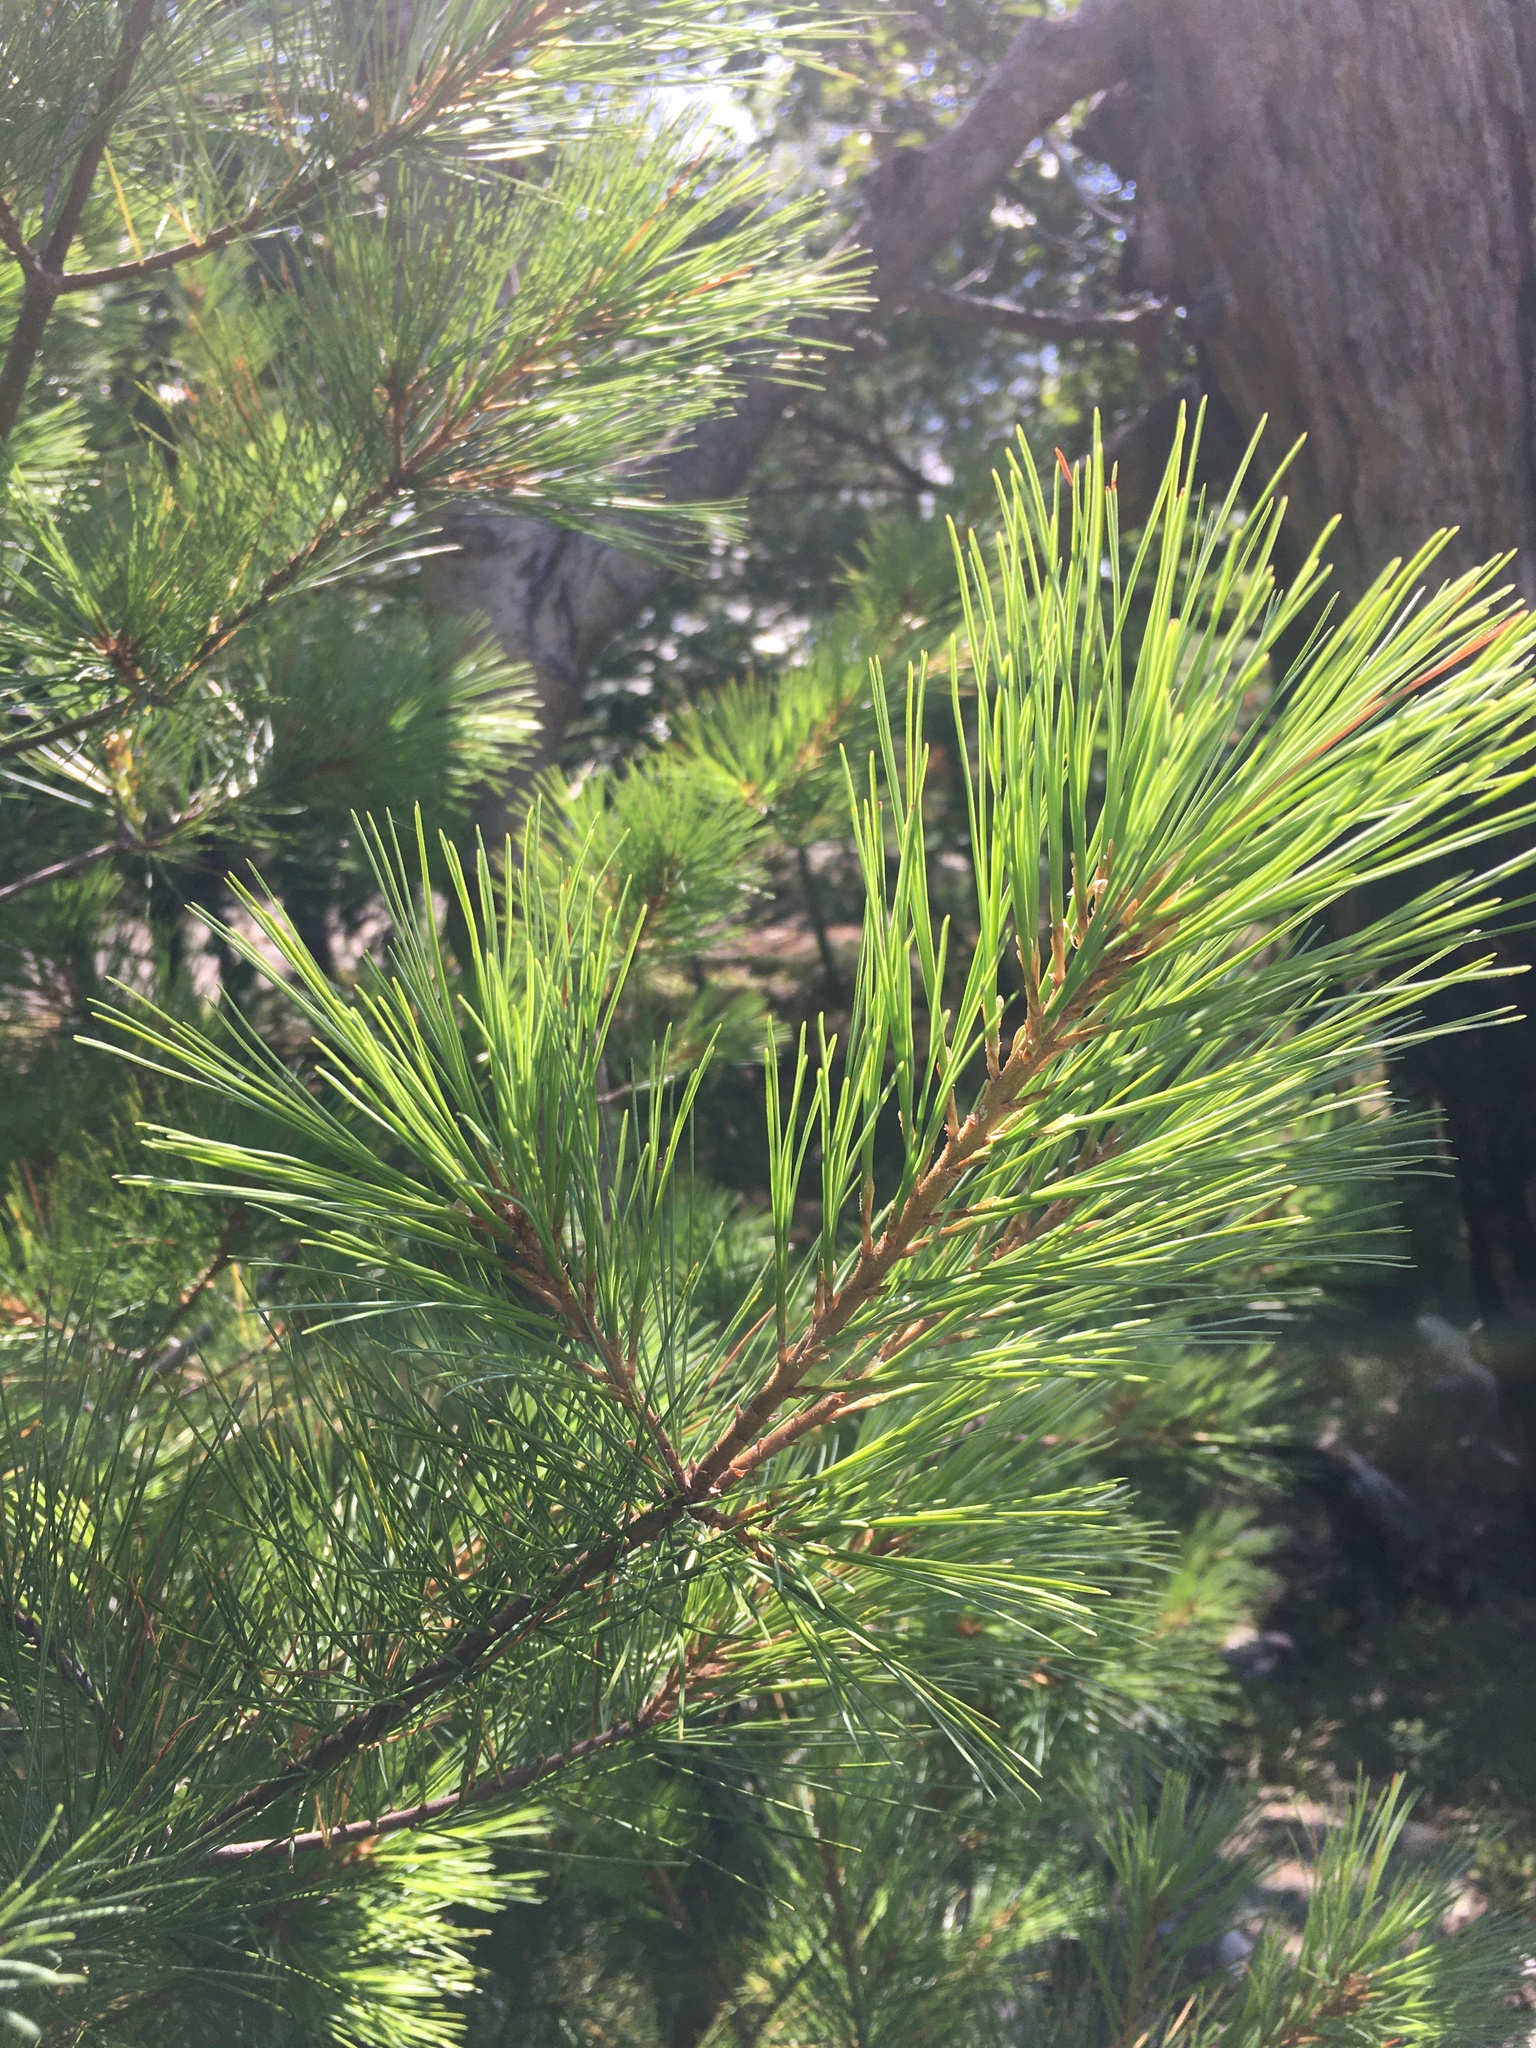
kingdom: Plantae
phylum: Tracheophyta
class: Pinopsida
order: Pinales
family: Pinaceae
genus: Pinus
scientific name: Pinus strobus
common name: Weymouth pine
